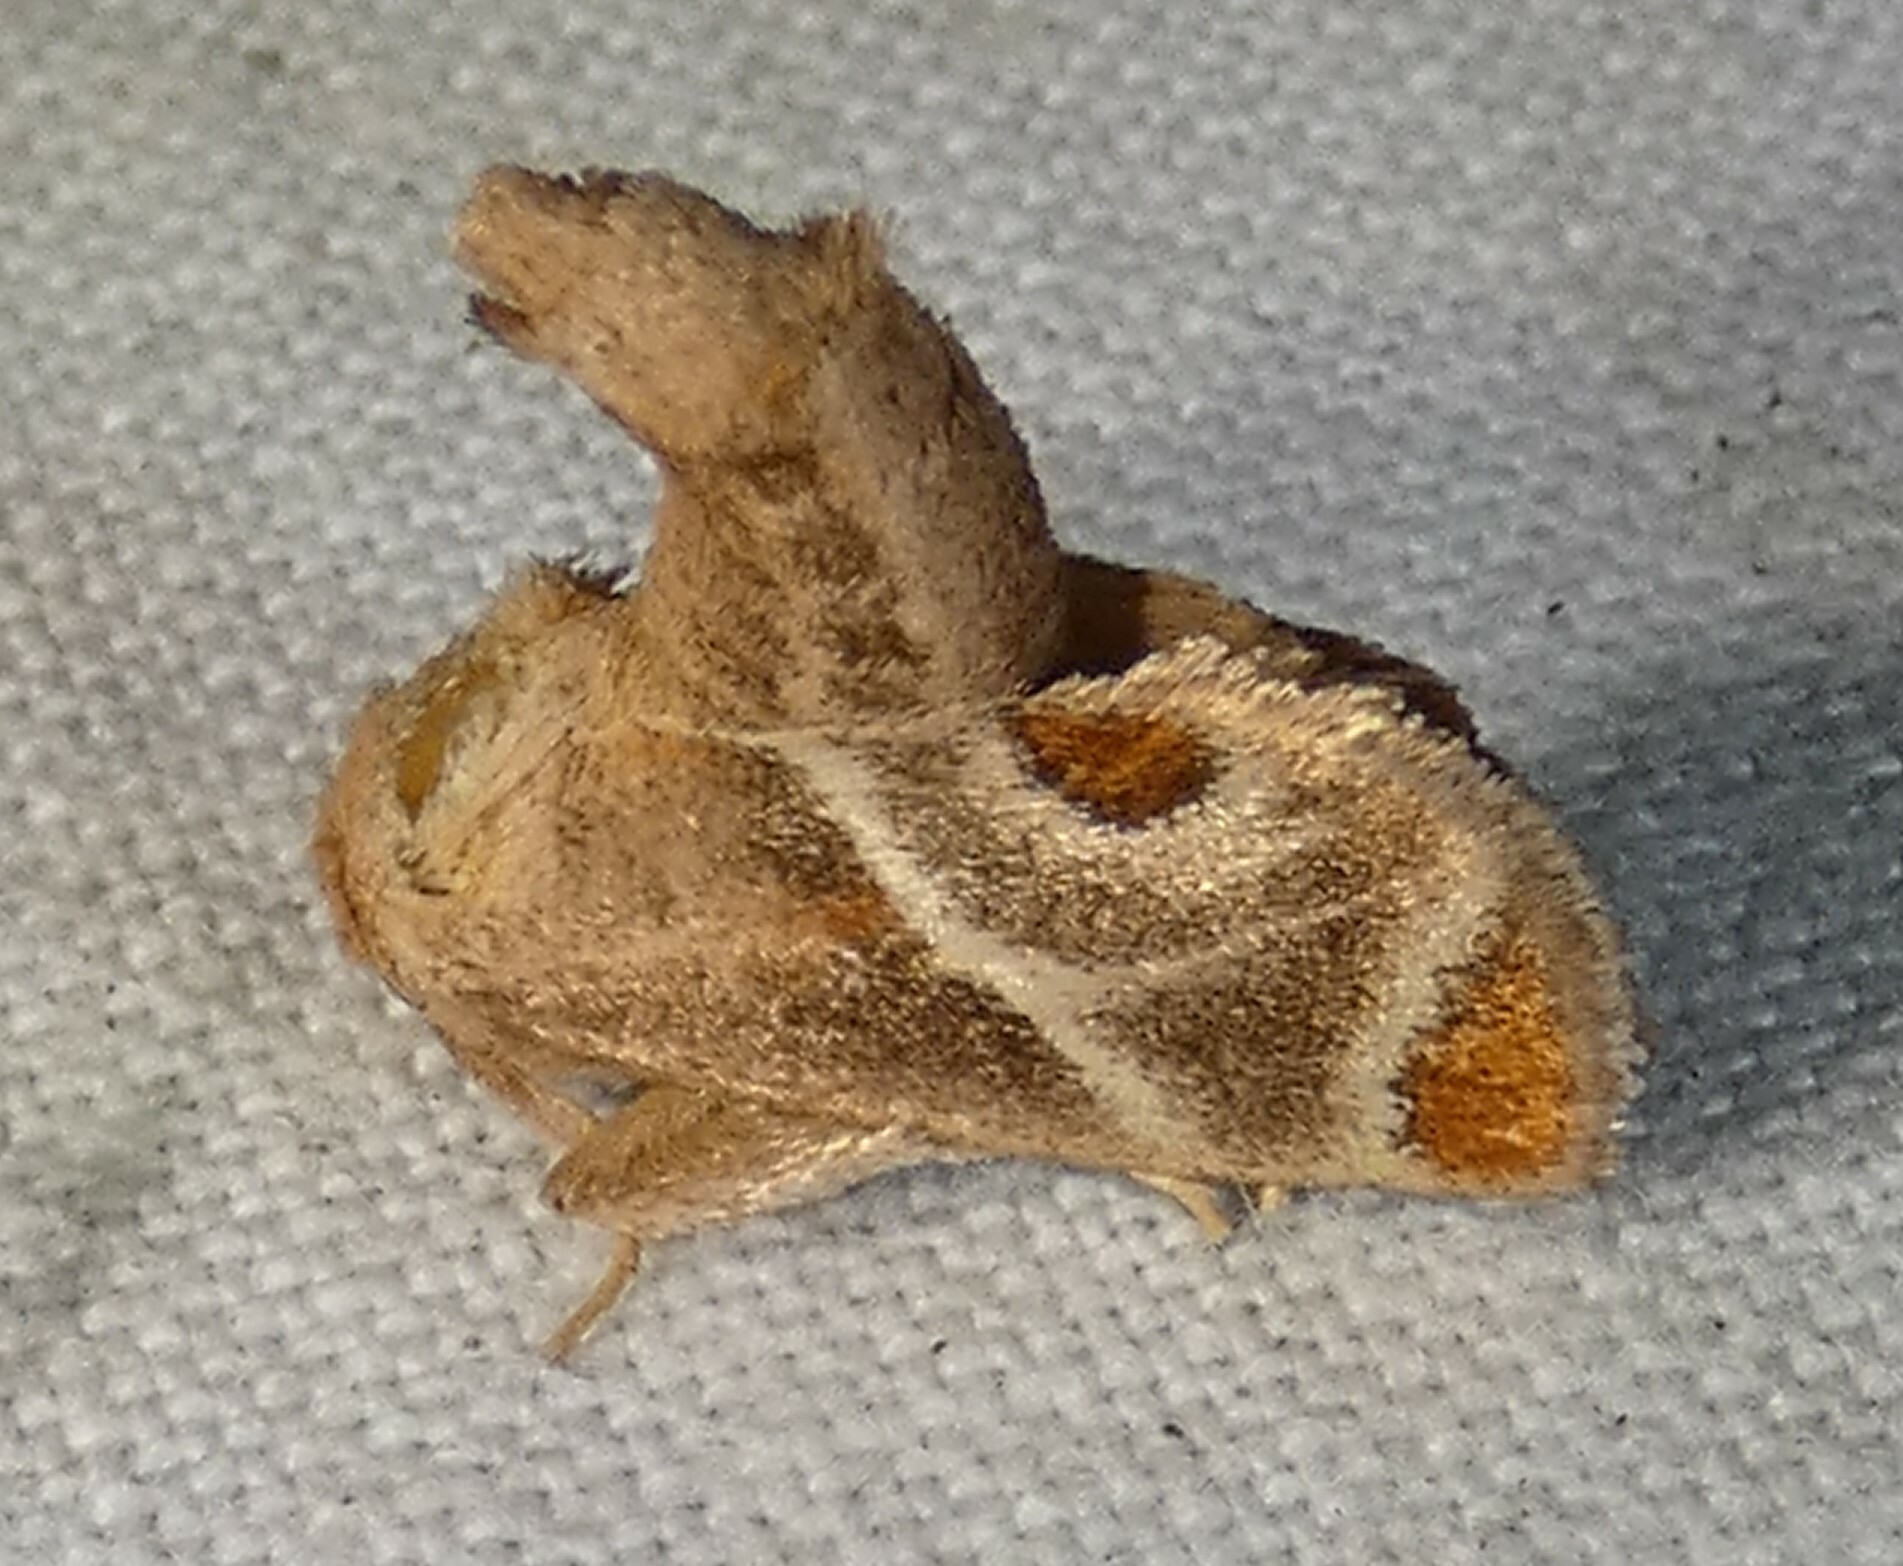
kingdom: Animalia
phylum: Arthropoda
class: Insecta
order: Lepidoptera
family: Limacodidae
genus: Apoda
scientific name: Apoda biguttata
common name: Shagreened slug moth
